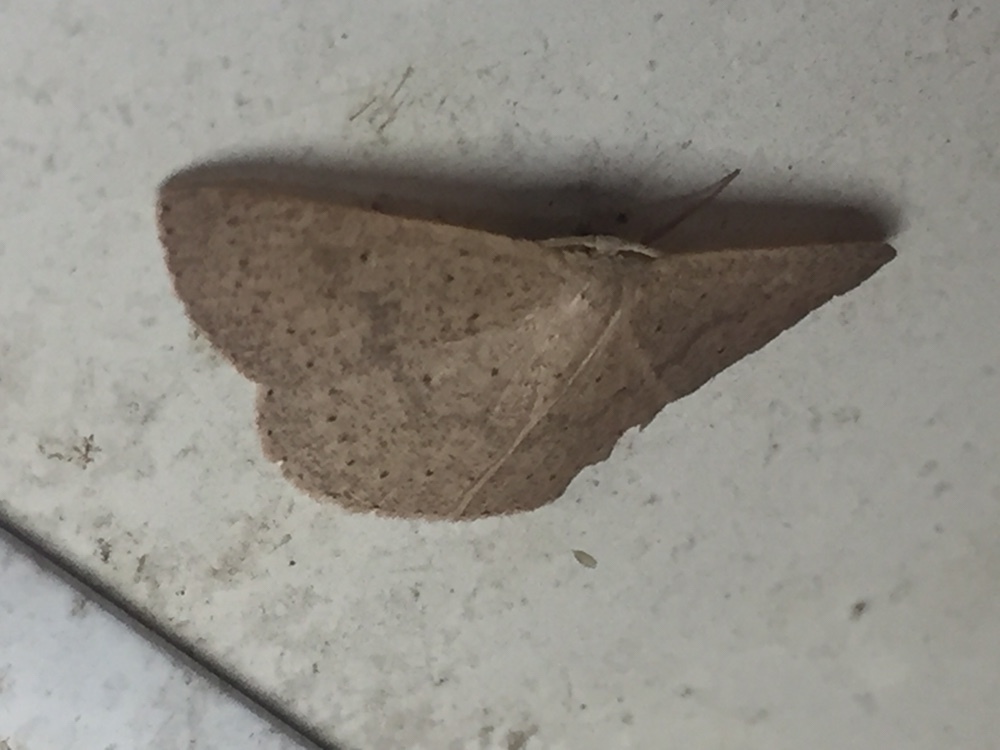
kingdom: Animalia
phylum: Arthropoda
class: Insecta
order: Lepidoptera
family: Geometridae
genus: Cyclophora
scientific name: Cyclophora obstataria
